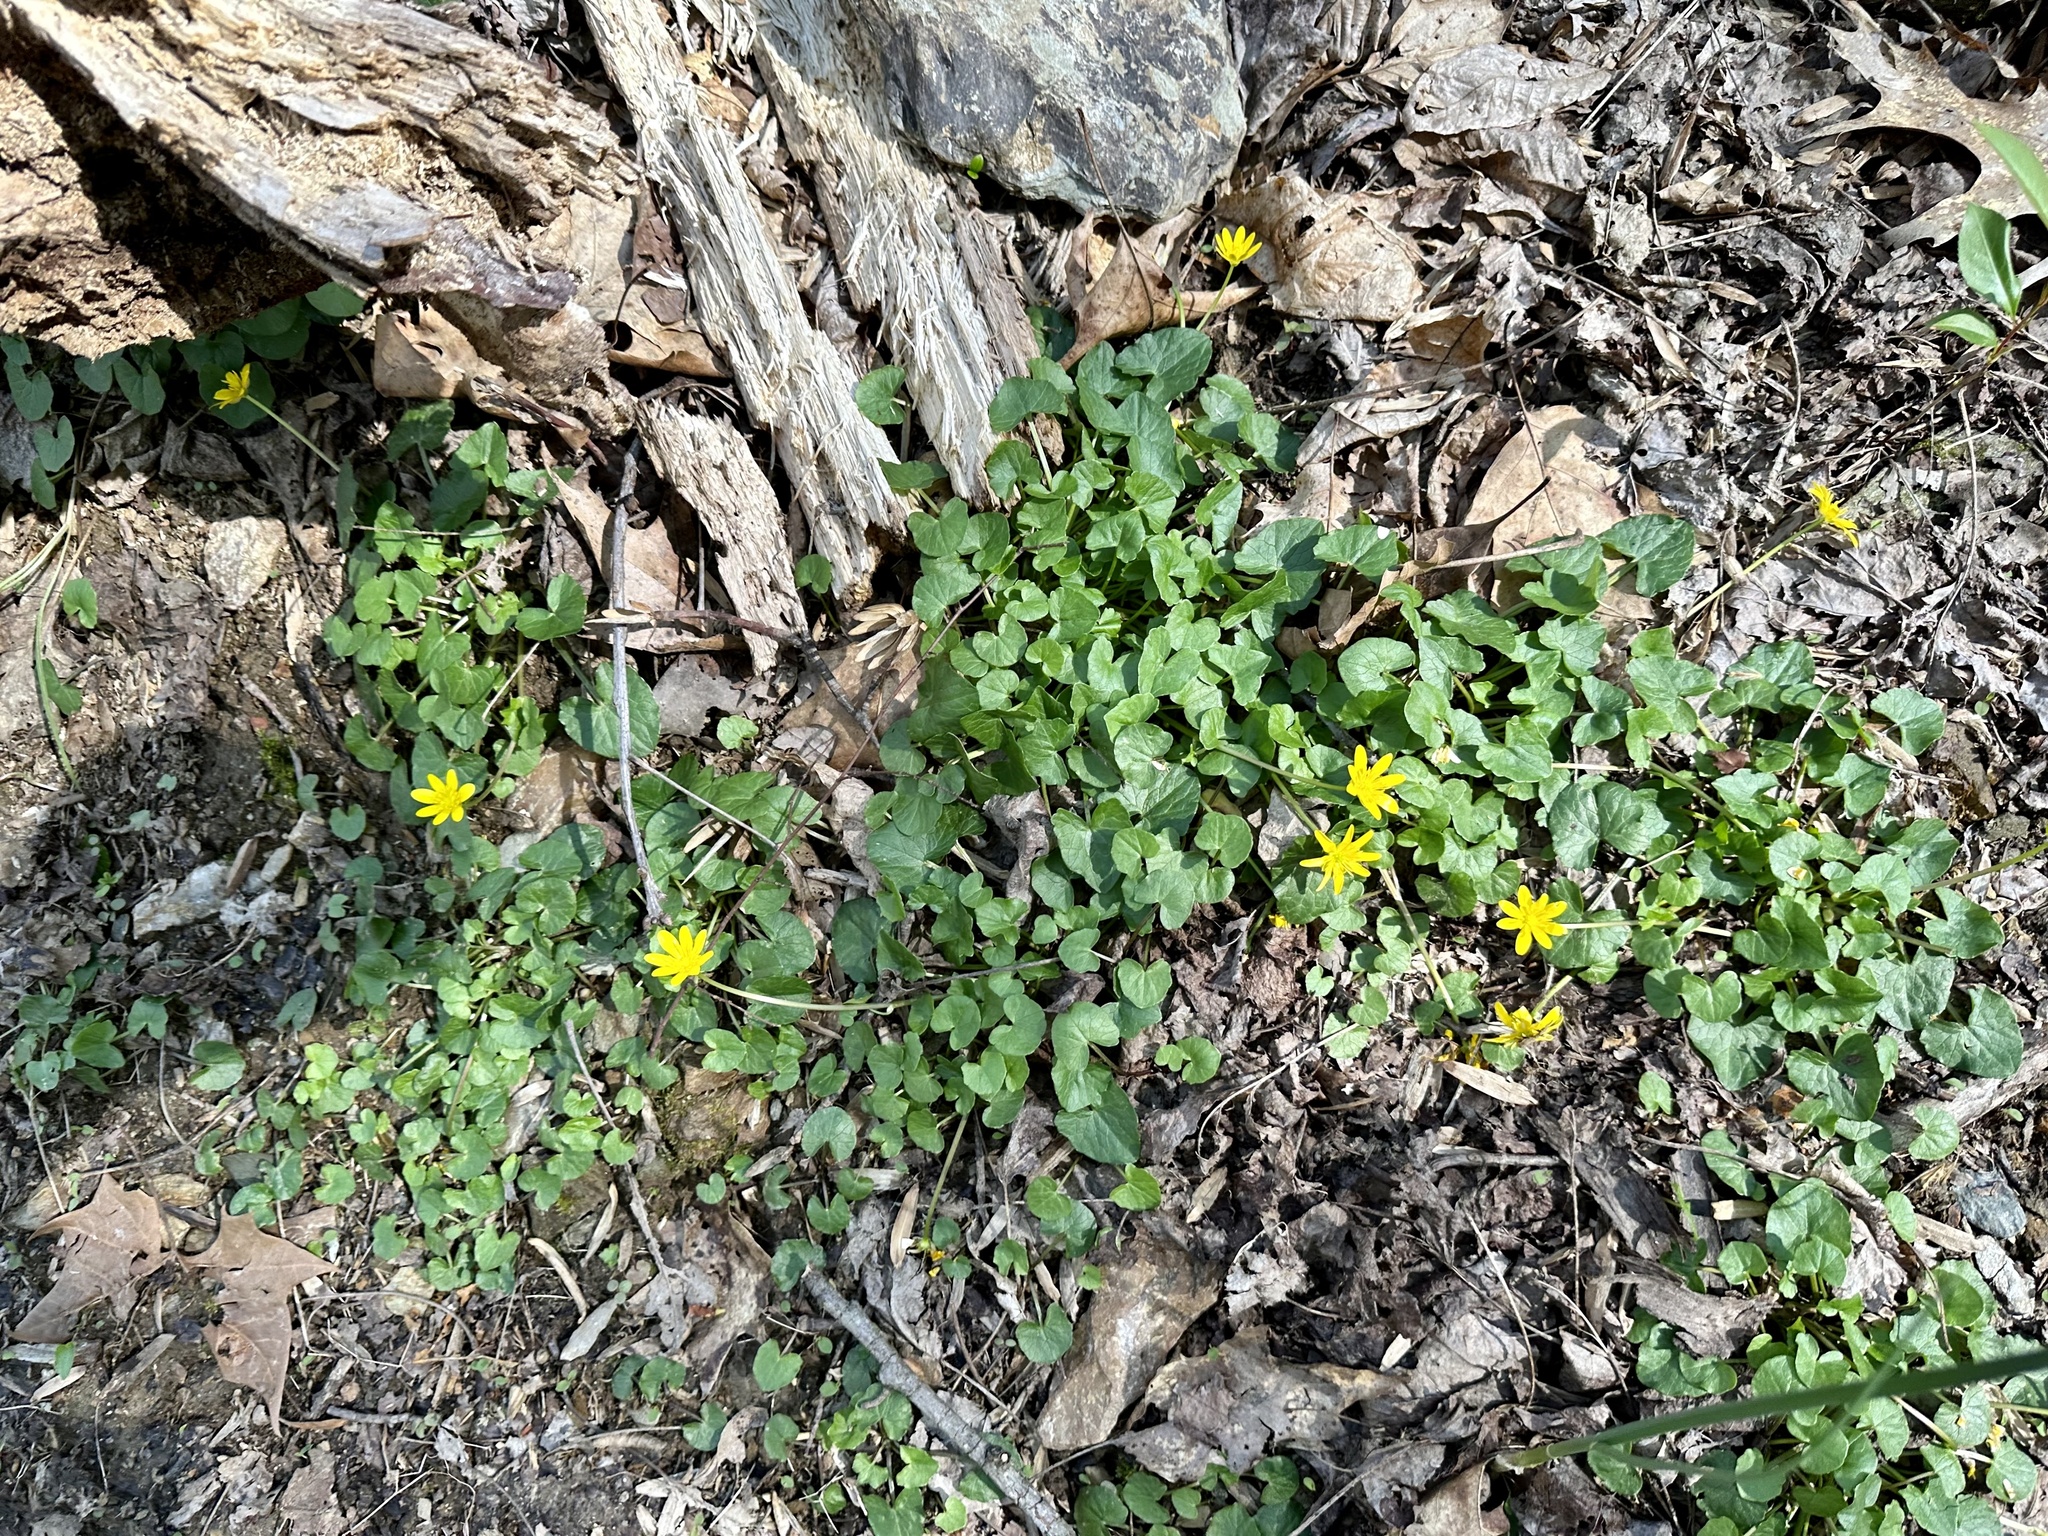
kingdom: Plantae
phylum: Tracheophyta
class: Magnoliopsida
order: Ranunculales
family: Ranunculaceae
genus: Ficaria
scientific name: Ficaria verna
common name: Lesser celandine
